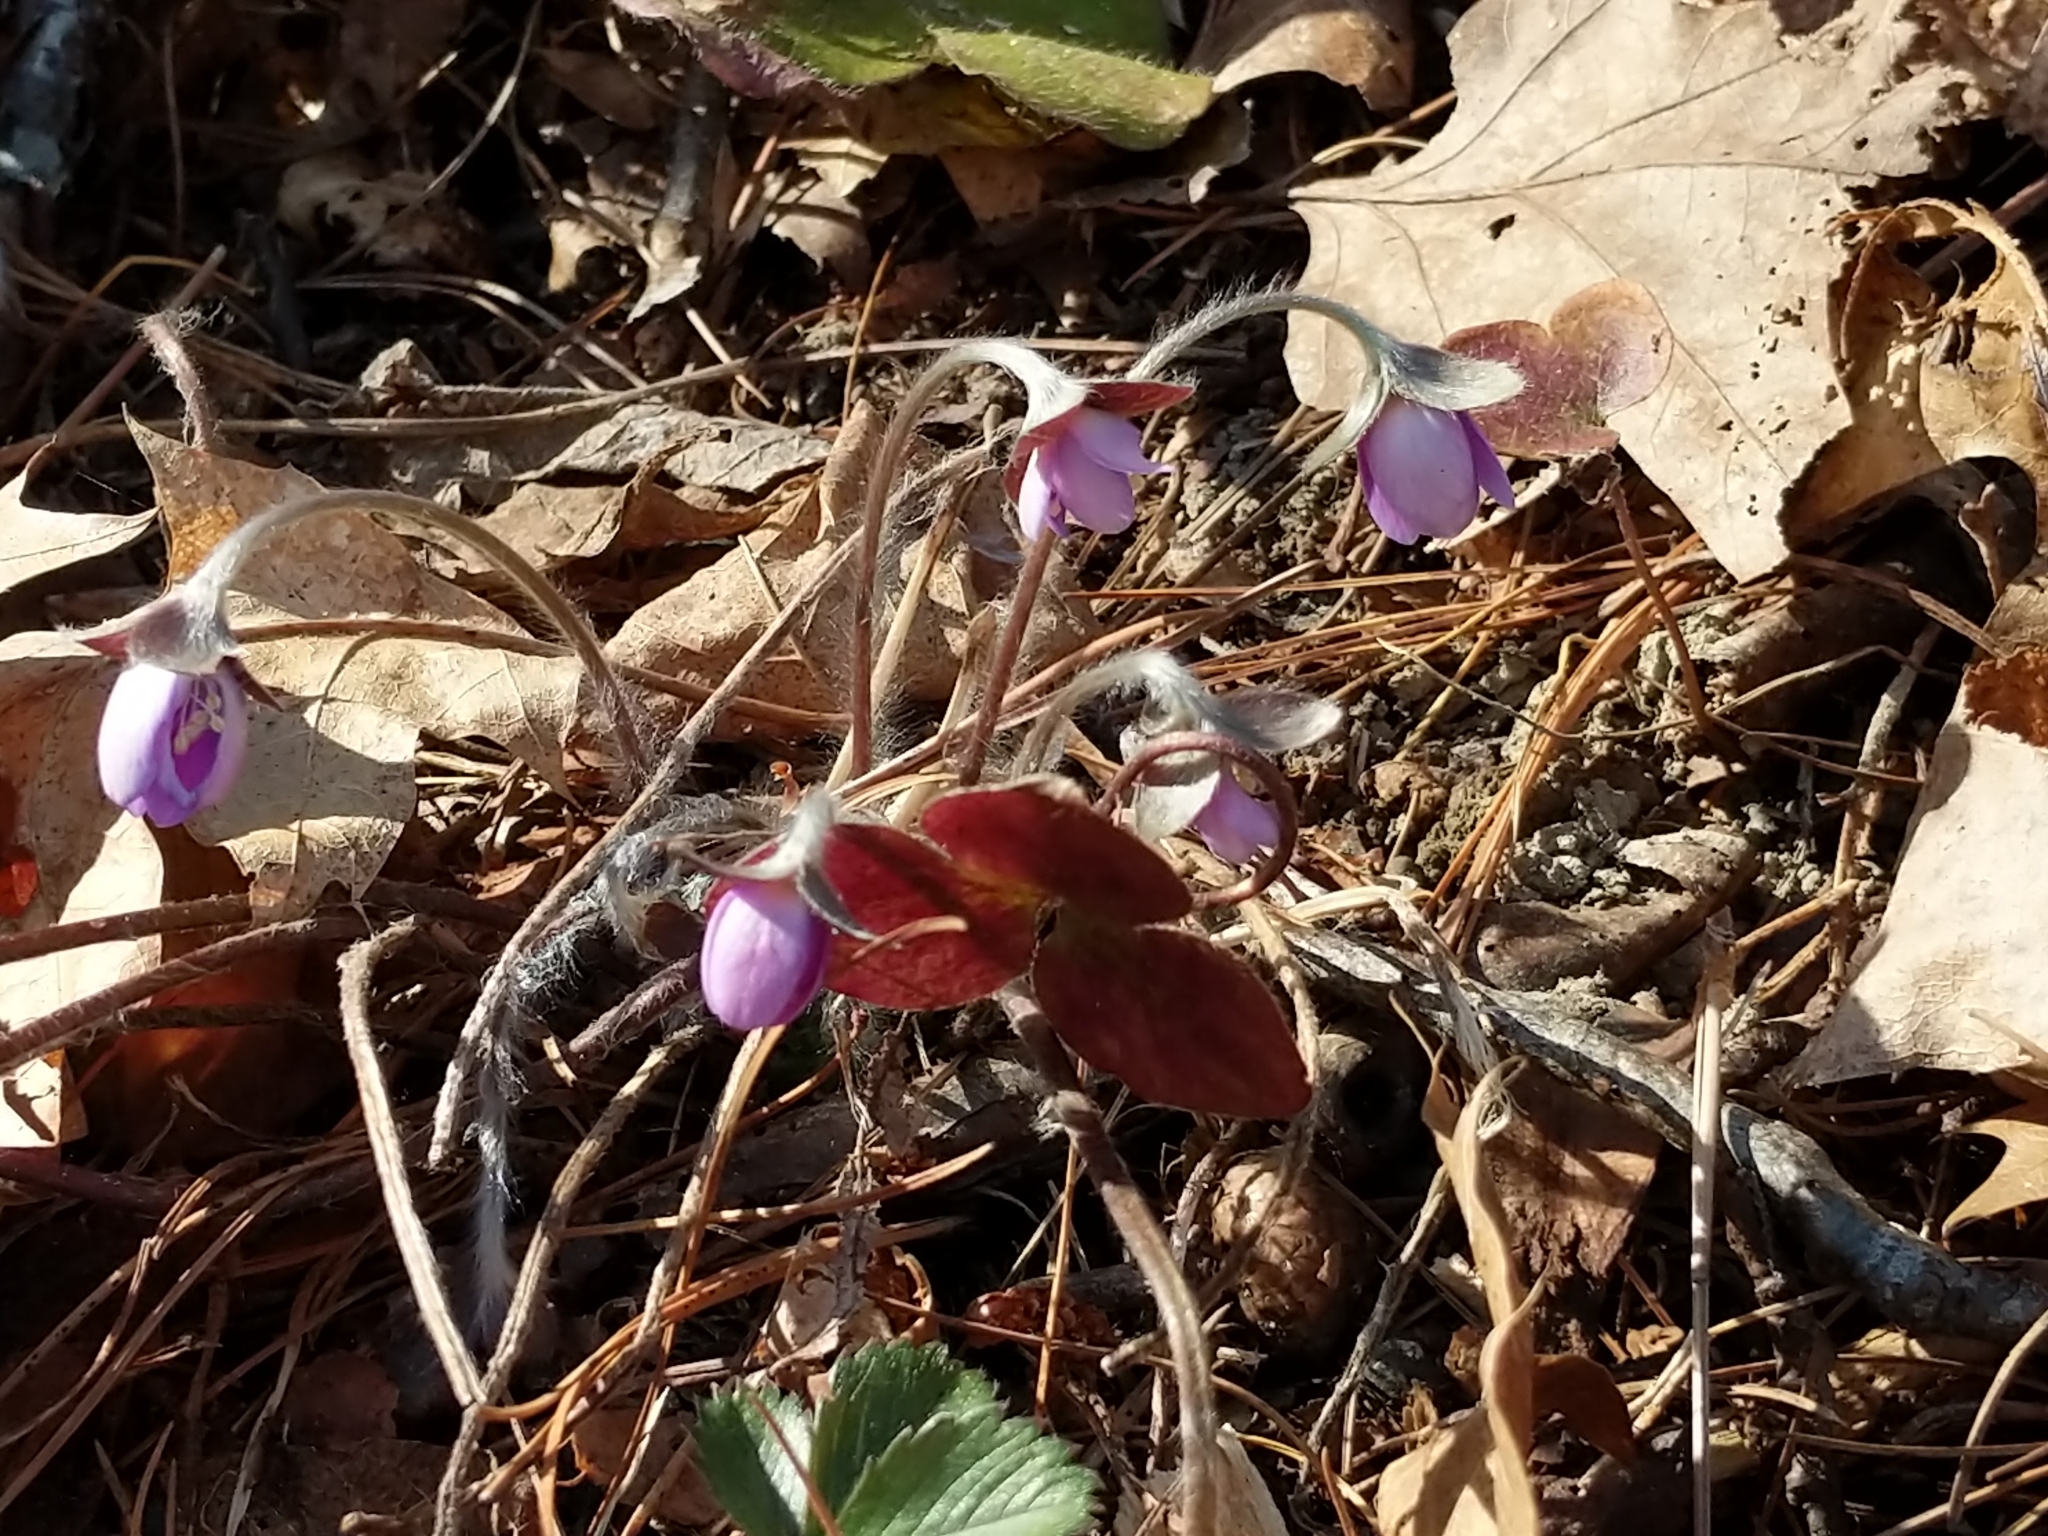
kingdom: Plantae
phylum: Tracheophyta
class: Magnoliopsida
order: Ranunculales
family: Ranunculaceae
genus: Hepatica
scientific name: Hepatica americana
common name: American hepatica
